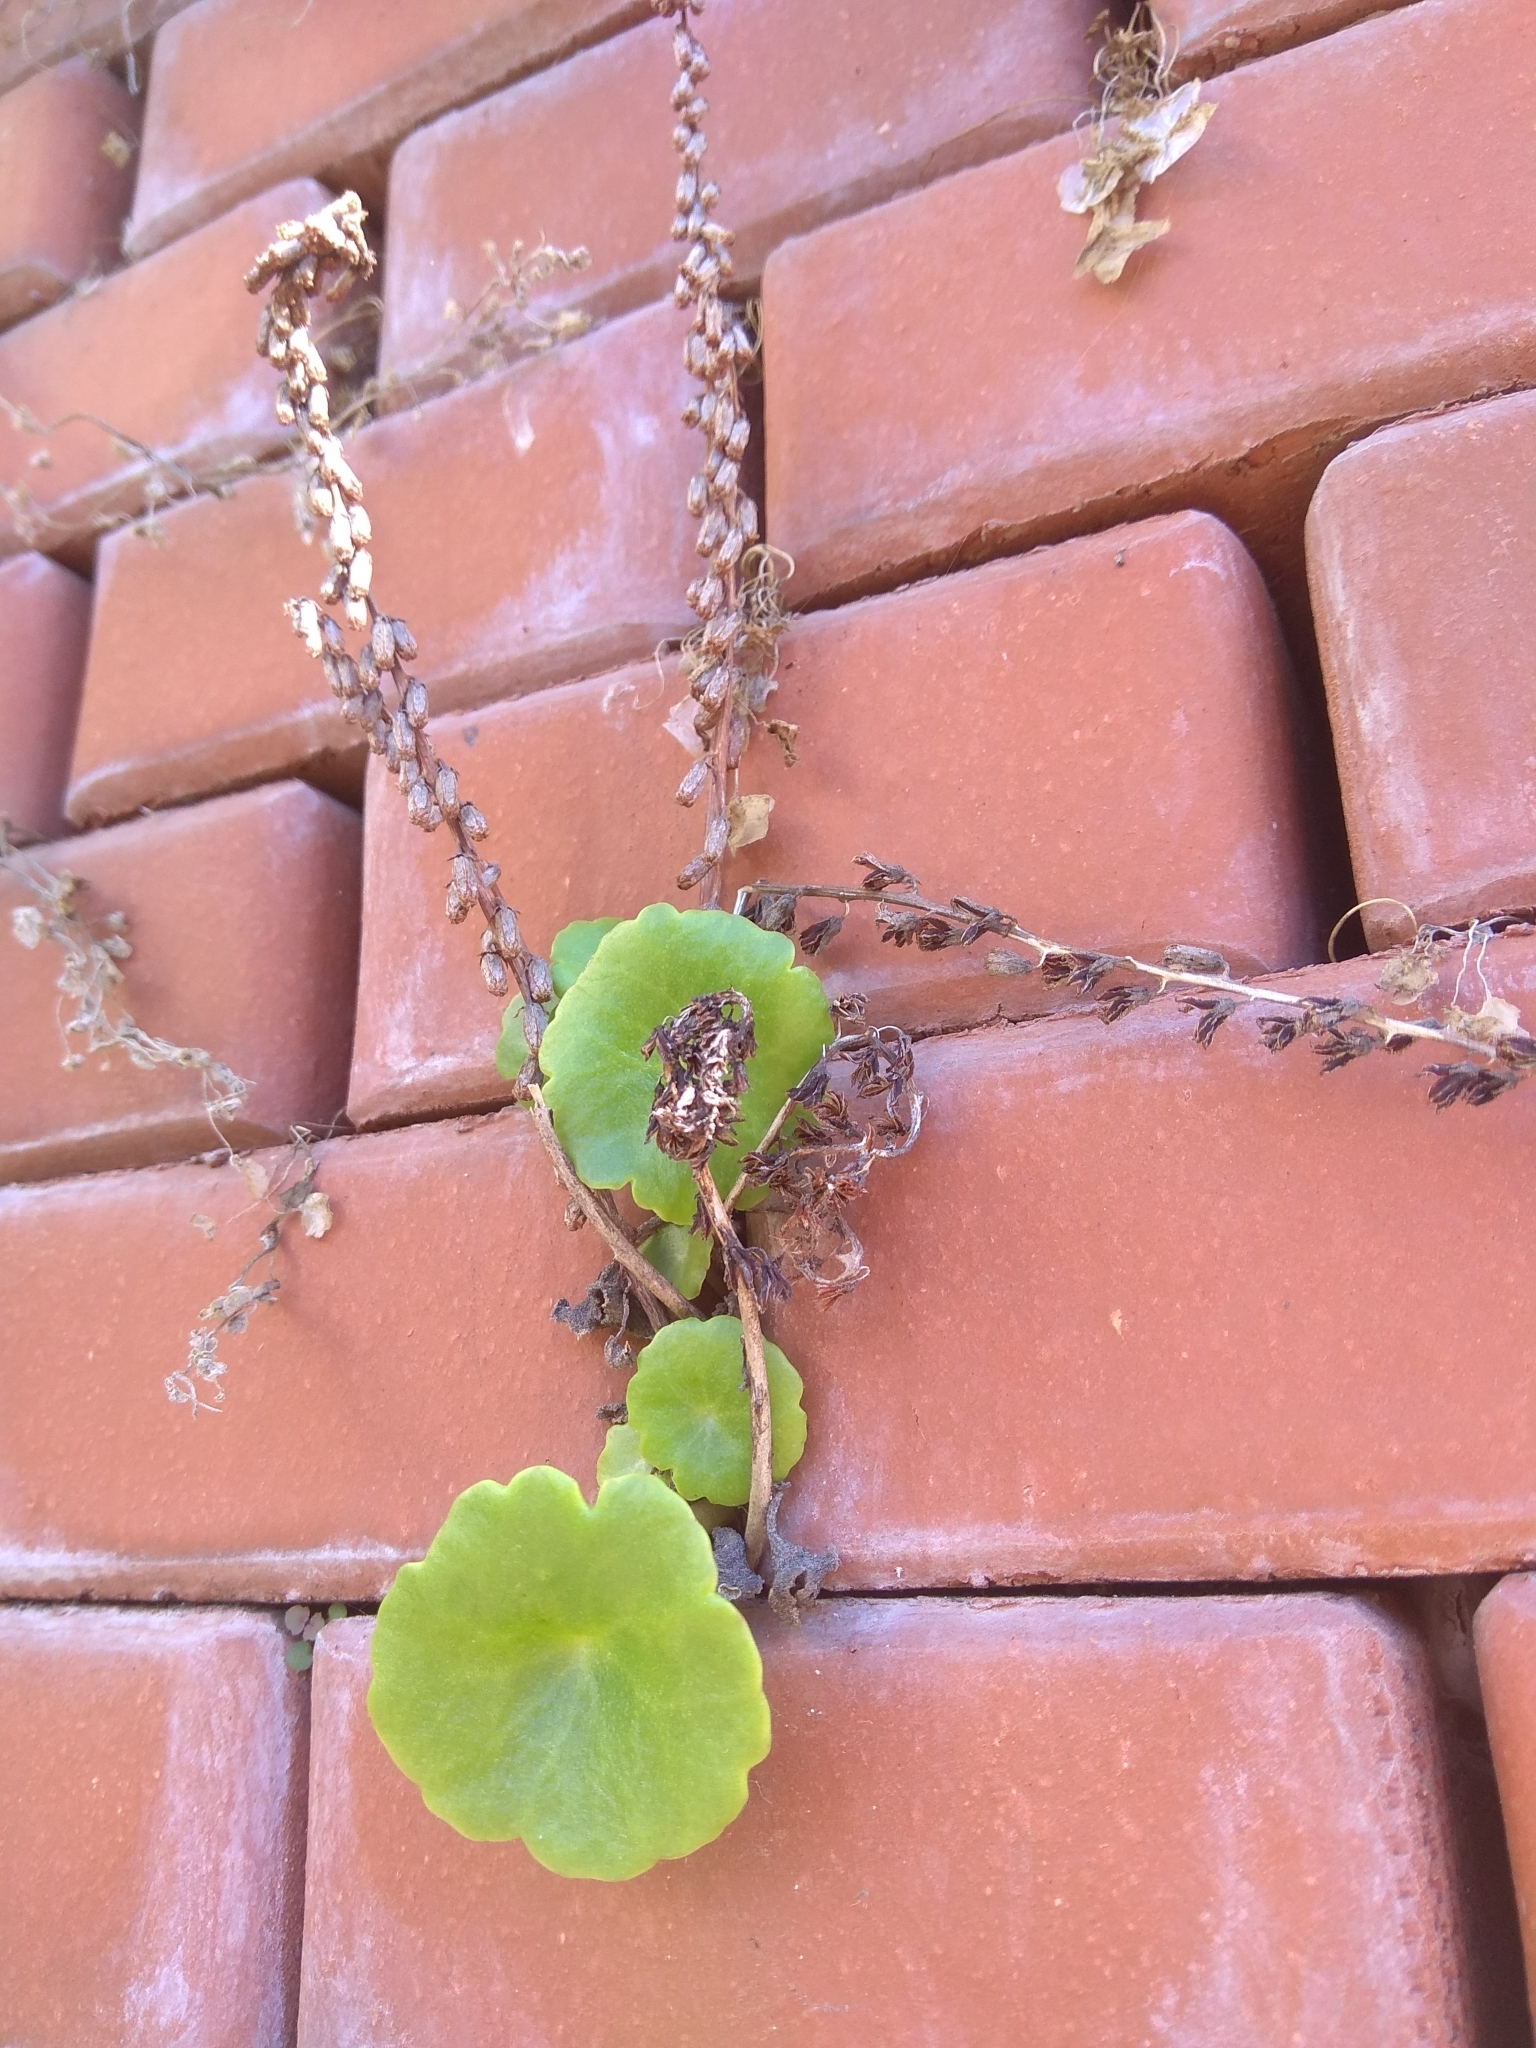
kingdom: Plantae
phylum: Tracheophyta
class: Magnoliopsida
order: Saxifragales
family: Crassulaceae
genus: Umbilicus
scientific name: Umbilicus rupestris
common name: Navelwort
